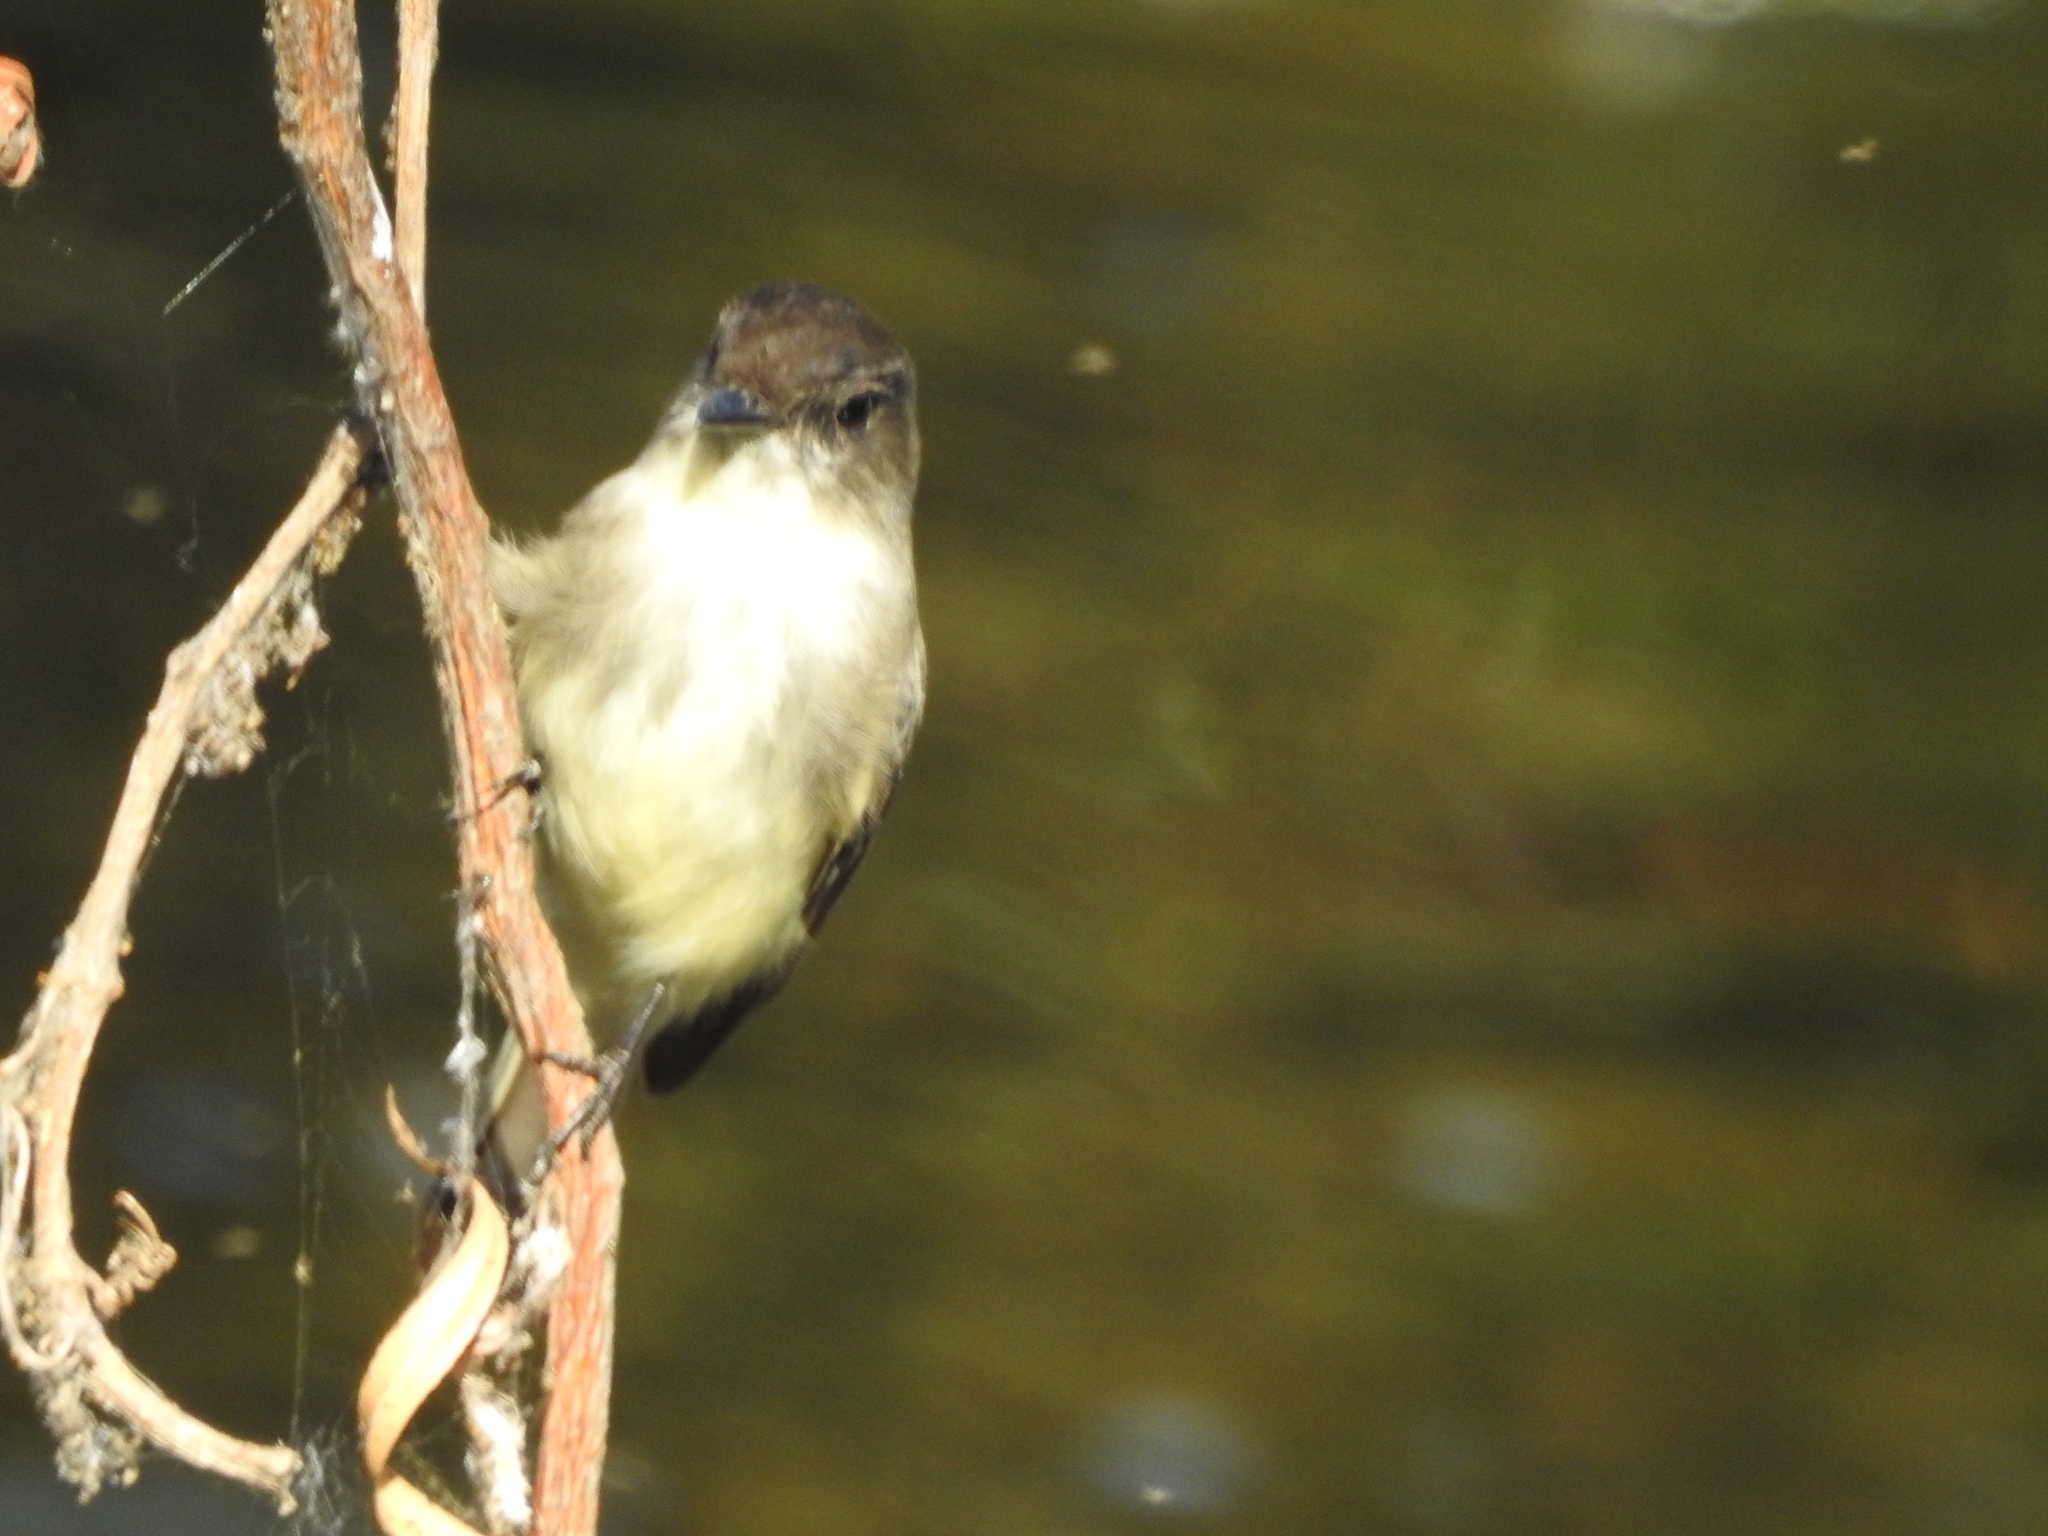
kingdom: Animalia
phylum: Chordata
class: Aves
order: Passeriformes
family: Tyrannidae
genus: Sayornis
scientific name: Sayornis phoebe
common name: Eastern phoebe
